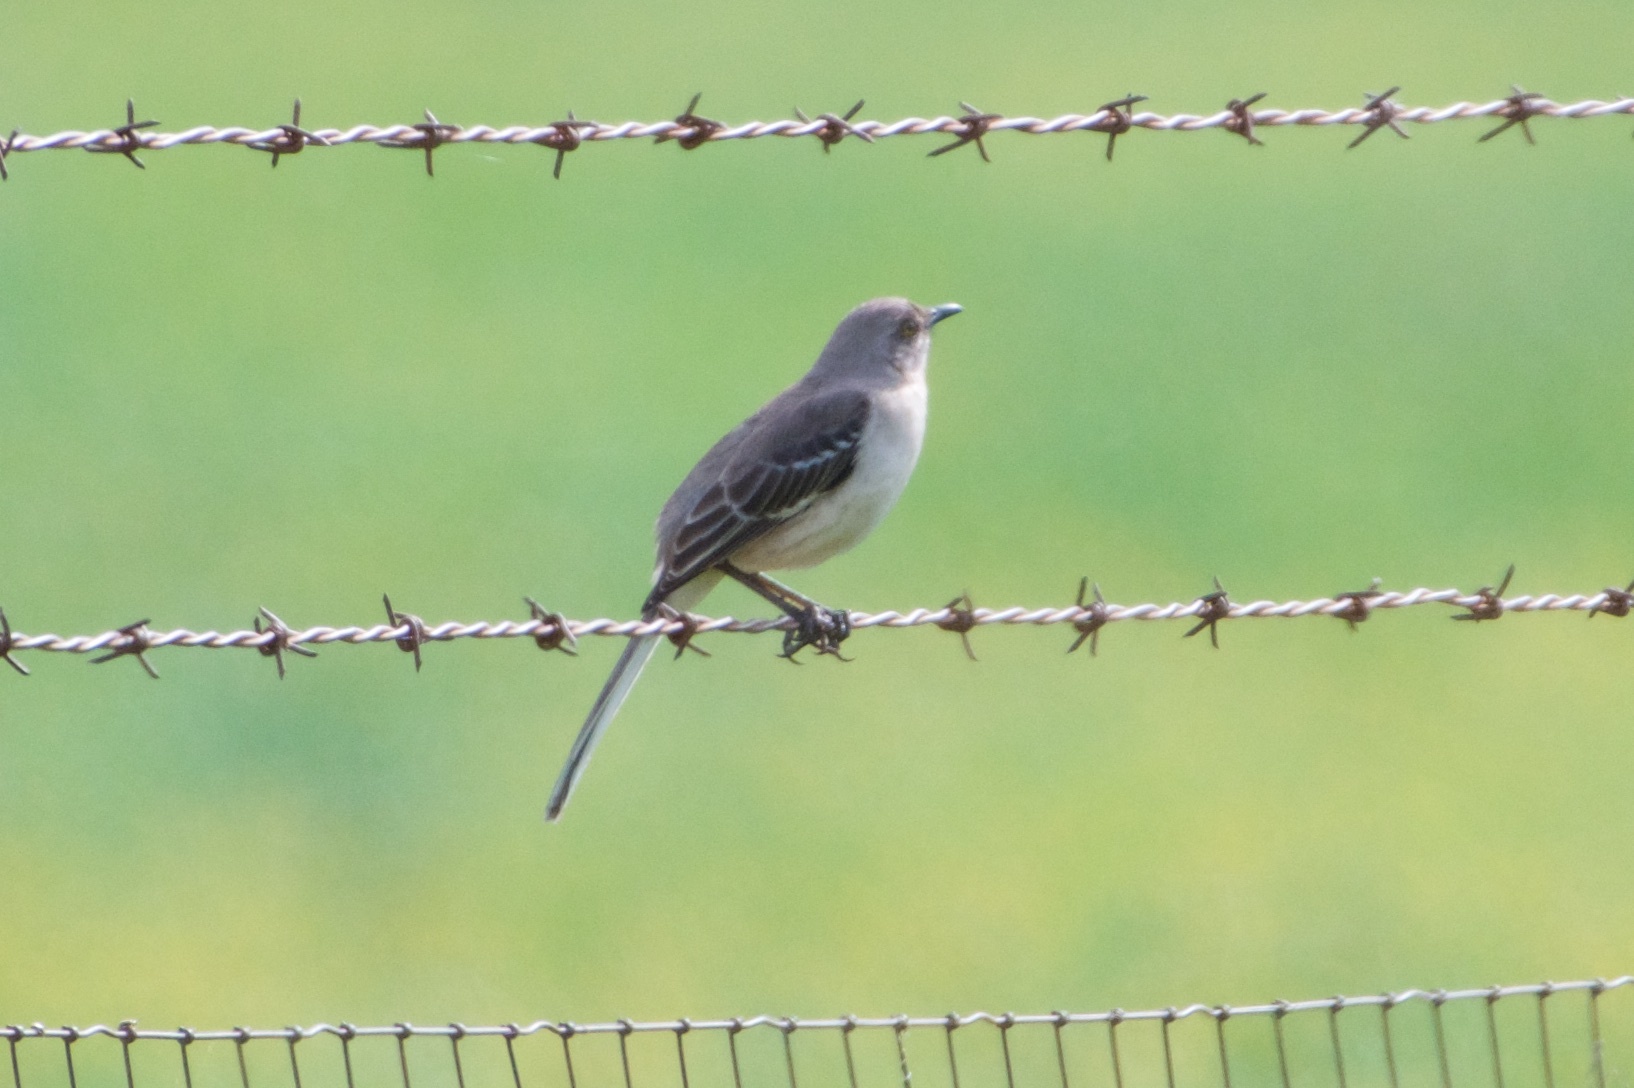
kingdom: Animalia
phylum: Chordata
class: Aves
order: Passeriformes
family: Mimidae
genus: Mimus
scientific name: Mimus polyglottos
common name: Northern mockingbird
